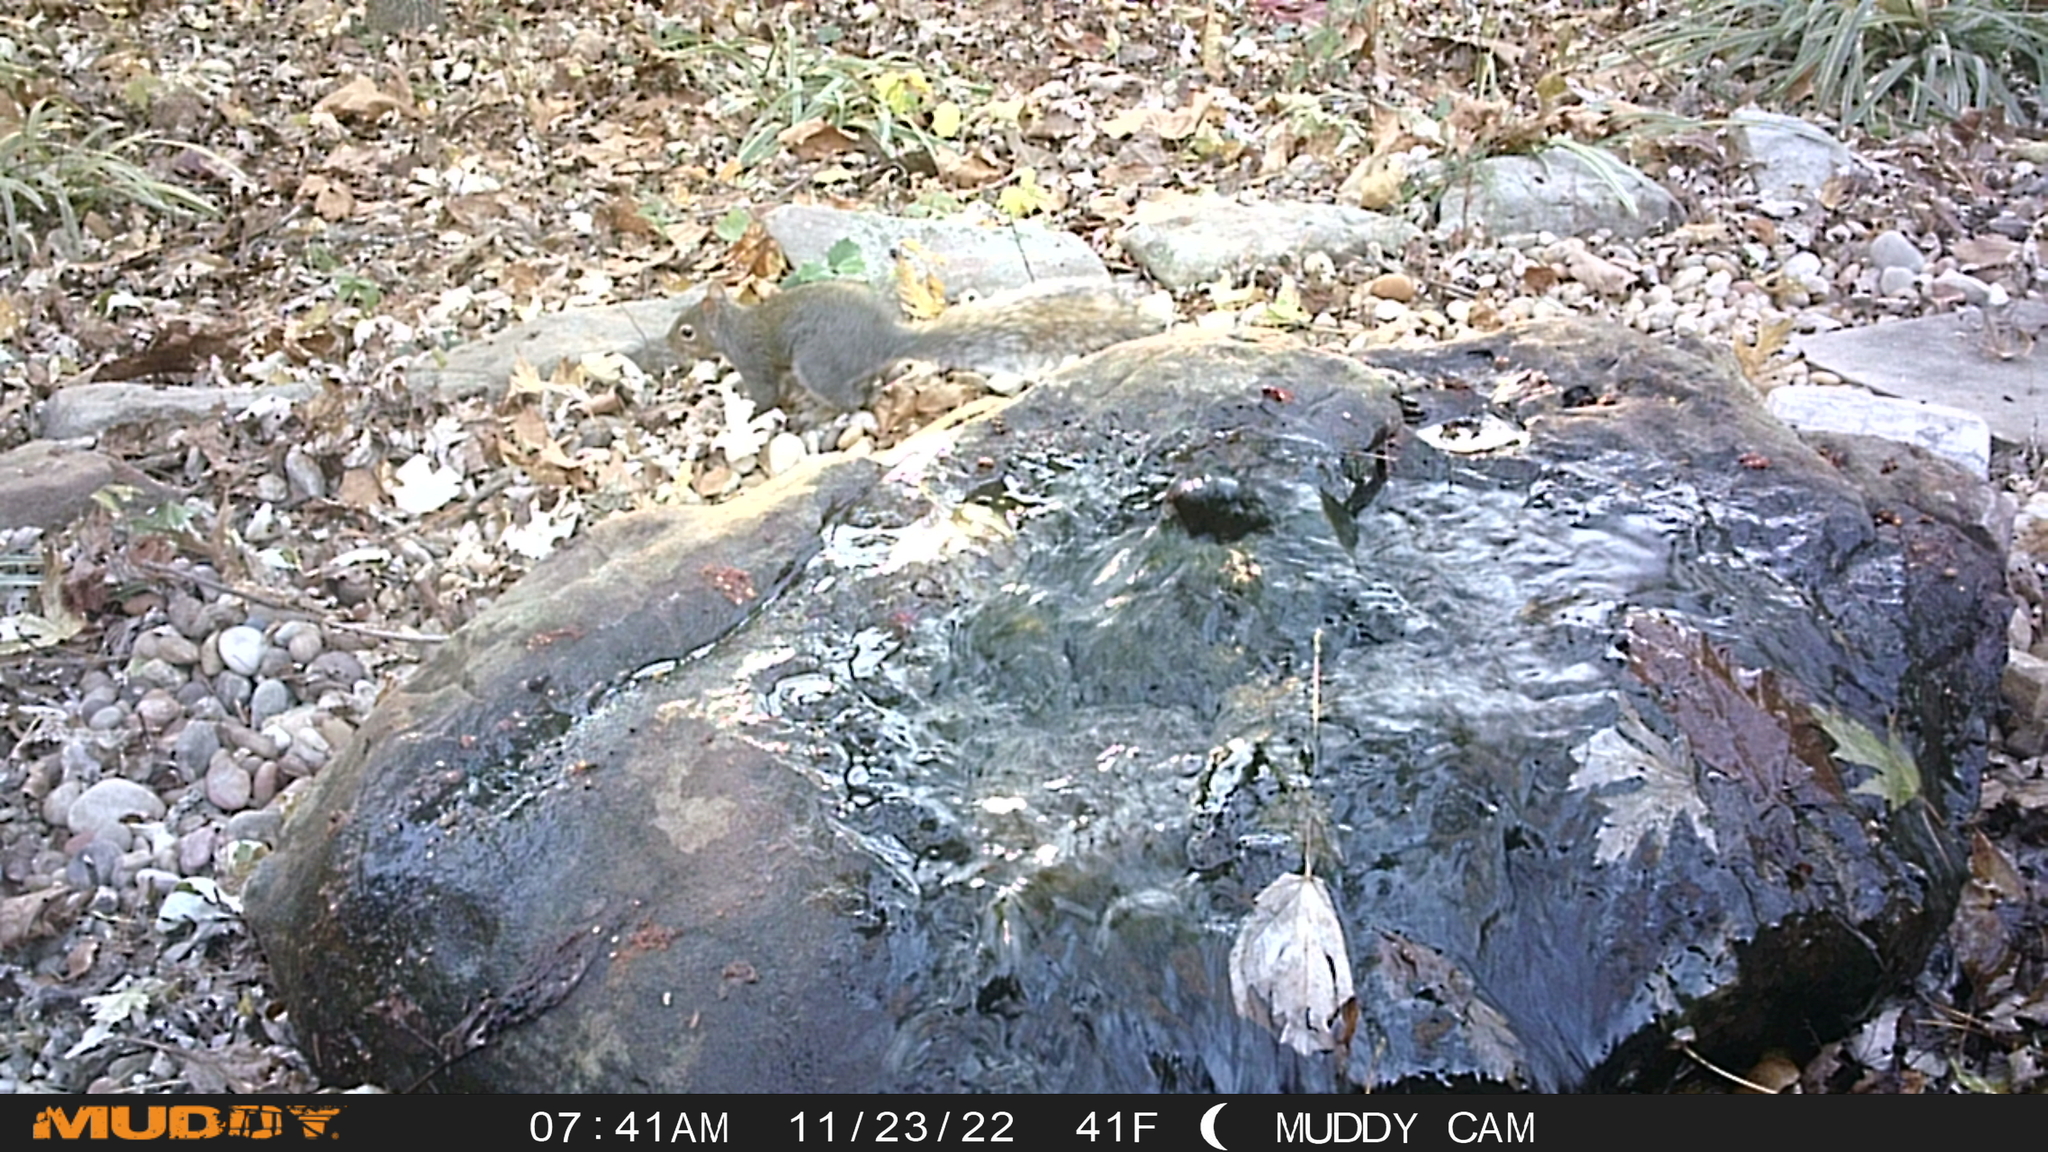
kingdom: Animalia
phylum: Chordata
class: Mammalia
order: Rodentia
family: Sciuridae
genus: Sciurus
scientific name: Sciurus carolinensis
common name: Eastern gray squirrel
